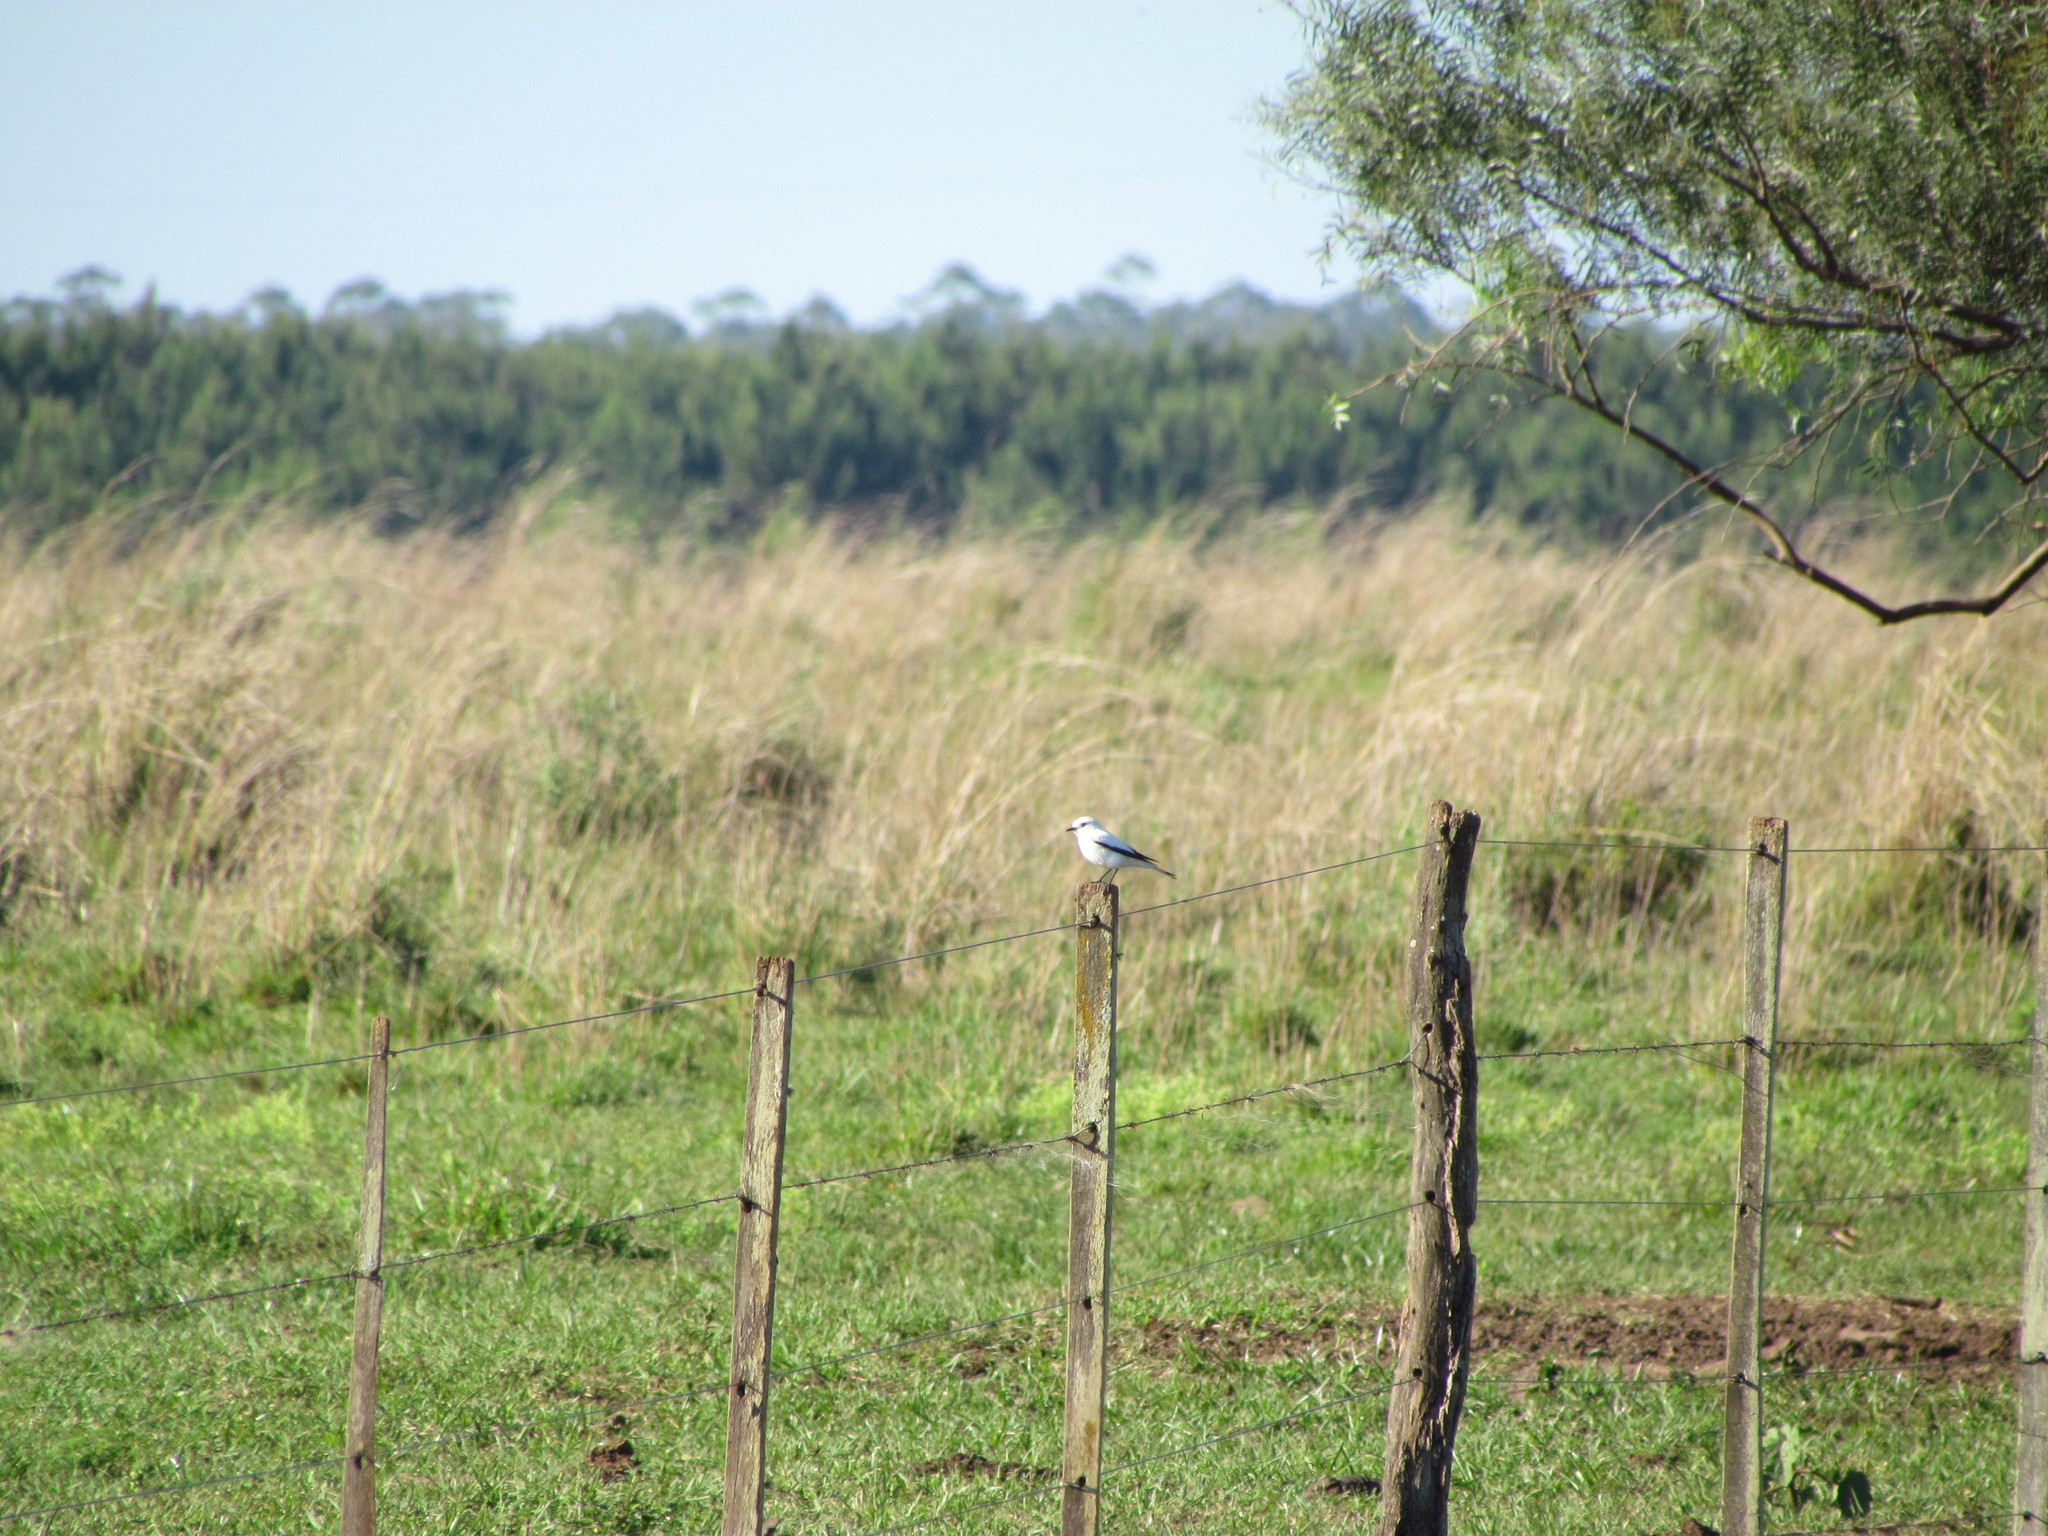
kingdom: Animalia
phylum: Chordata
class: Aves
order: Passeriformes
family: Tyrannidae
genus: Xolmis
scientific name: Xolmis irupero
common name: White monjita
